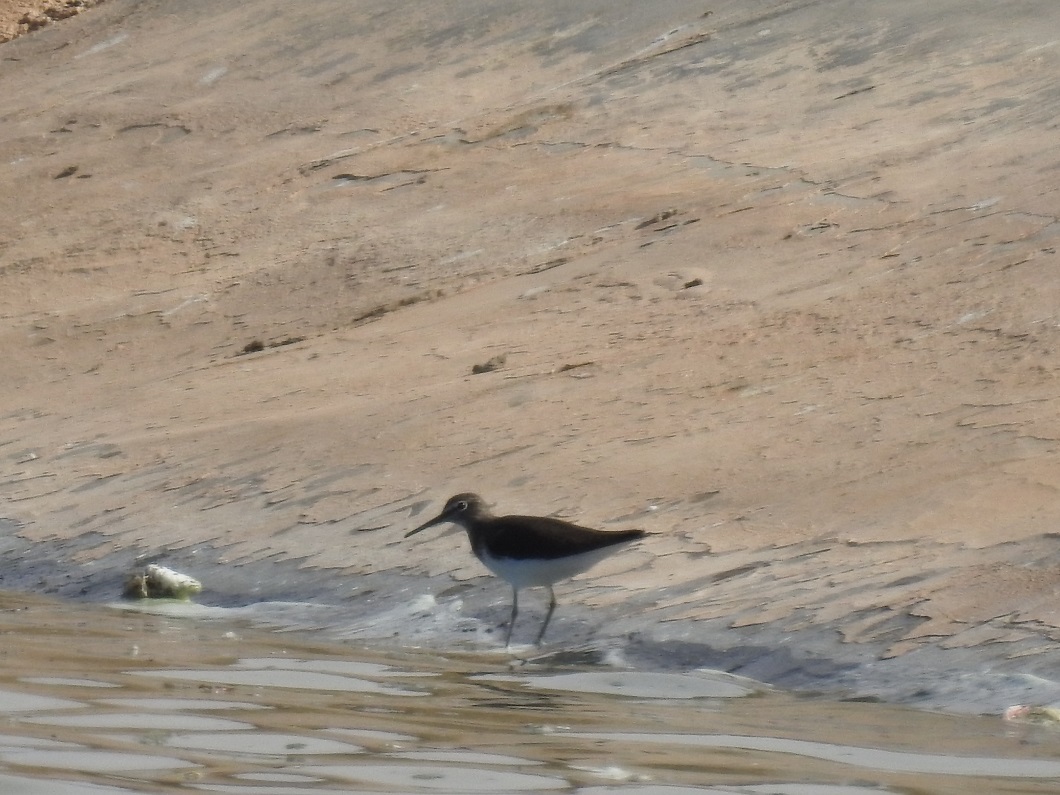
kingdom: Animalia
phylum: Chordata
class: Aves
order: Charadriiformes
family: Scolopacidae
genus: Actitis
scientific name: Actitis hypoleucos
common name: Common sandpiper
